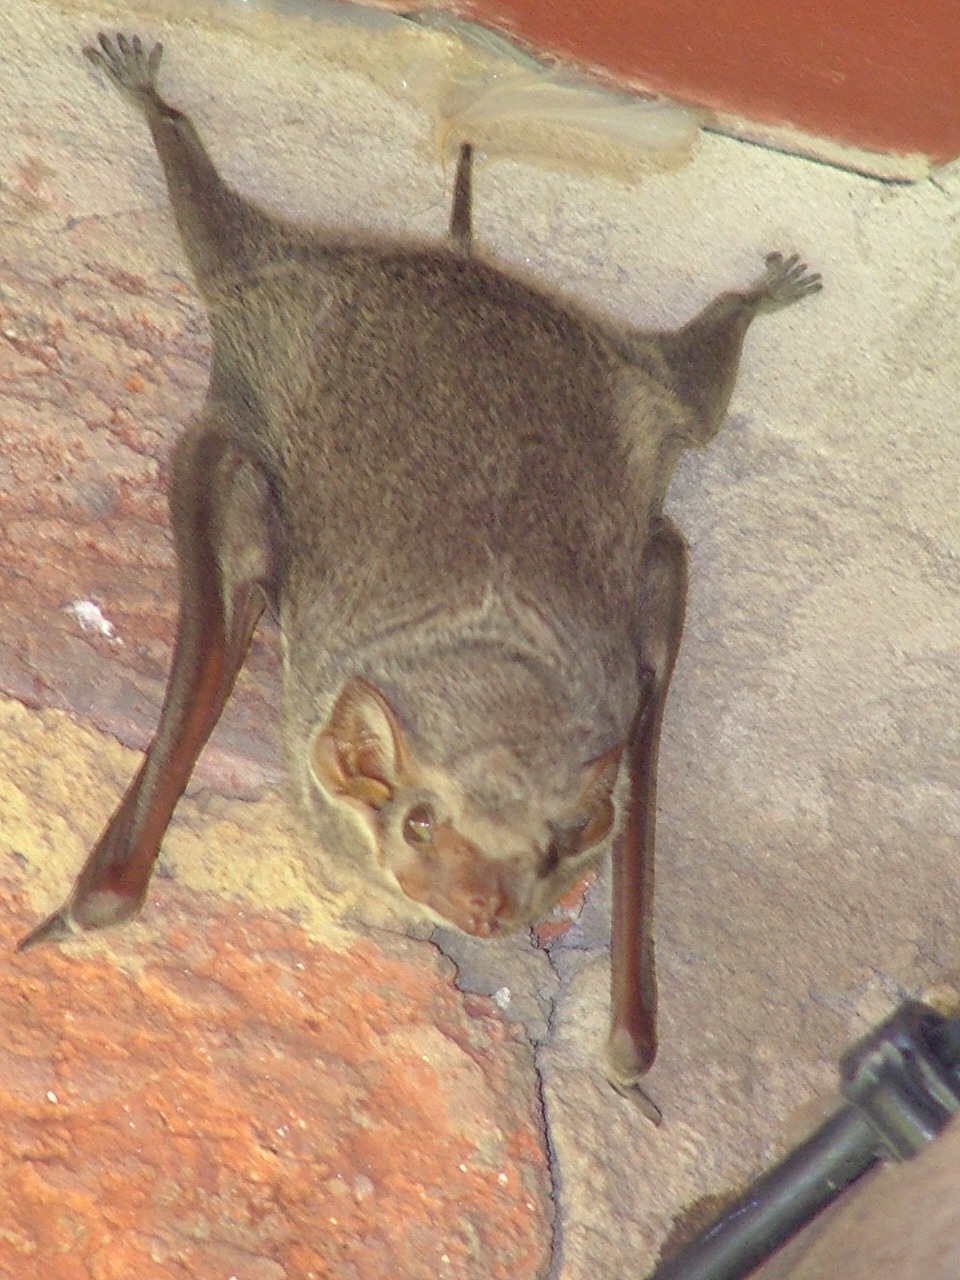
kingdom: Animalia
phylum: Chordata
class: Mammalia
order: Chiroptera
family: Emballonuridae
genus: Taphozous
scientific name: Taphozous mauritianus
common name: Mauritian tomb bat
